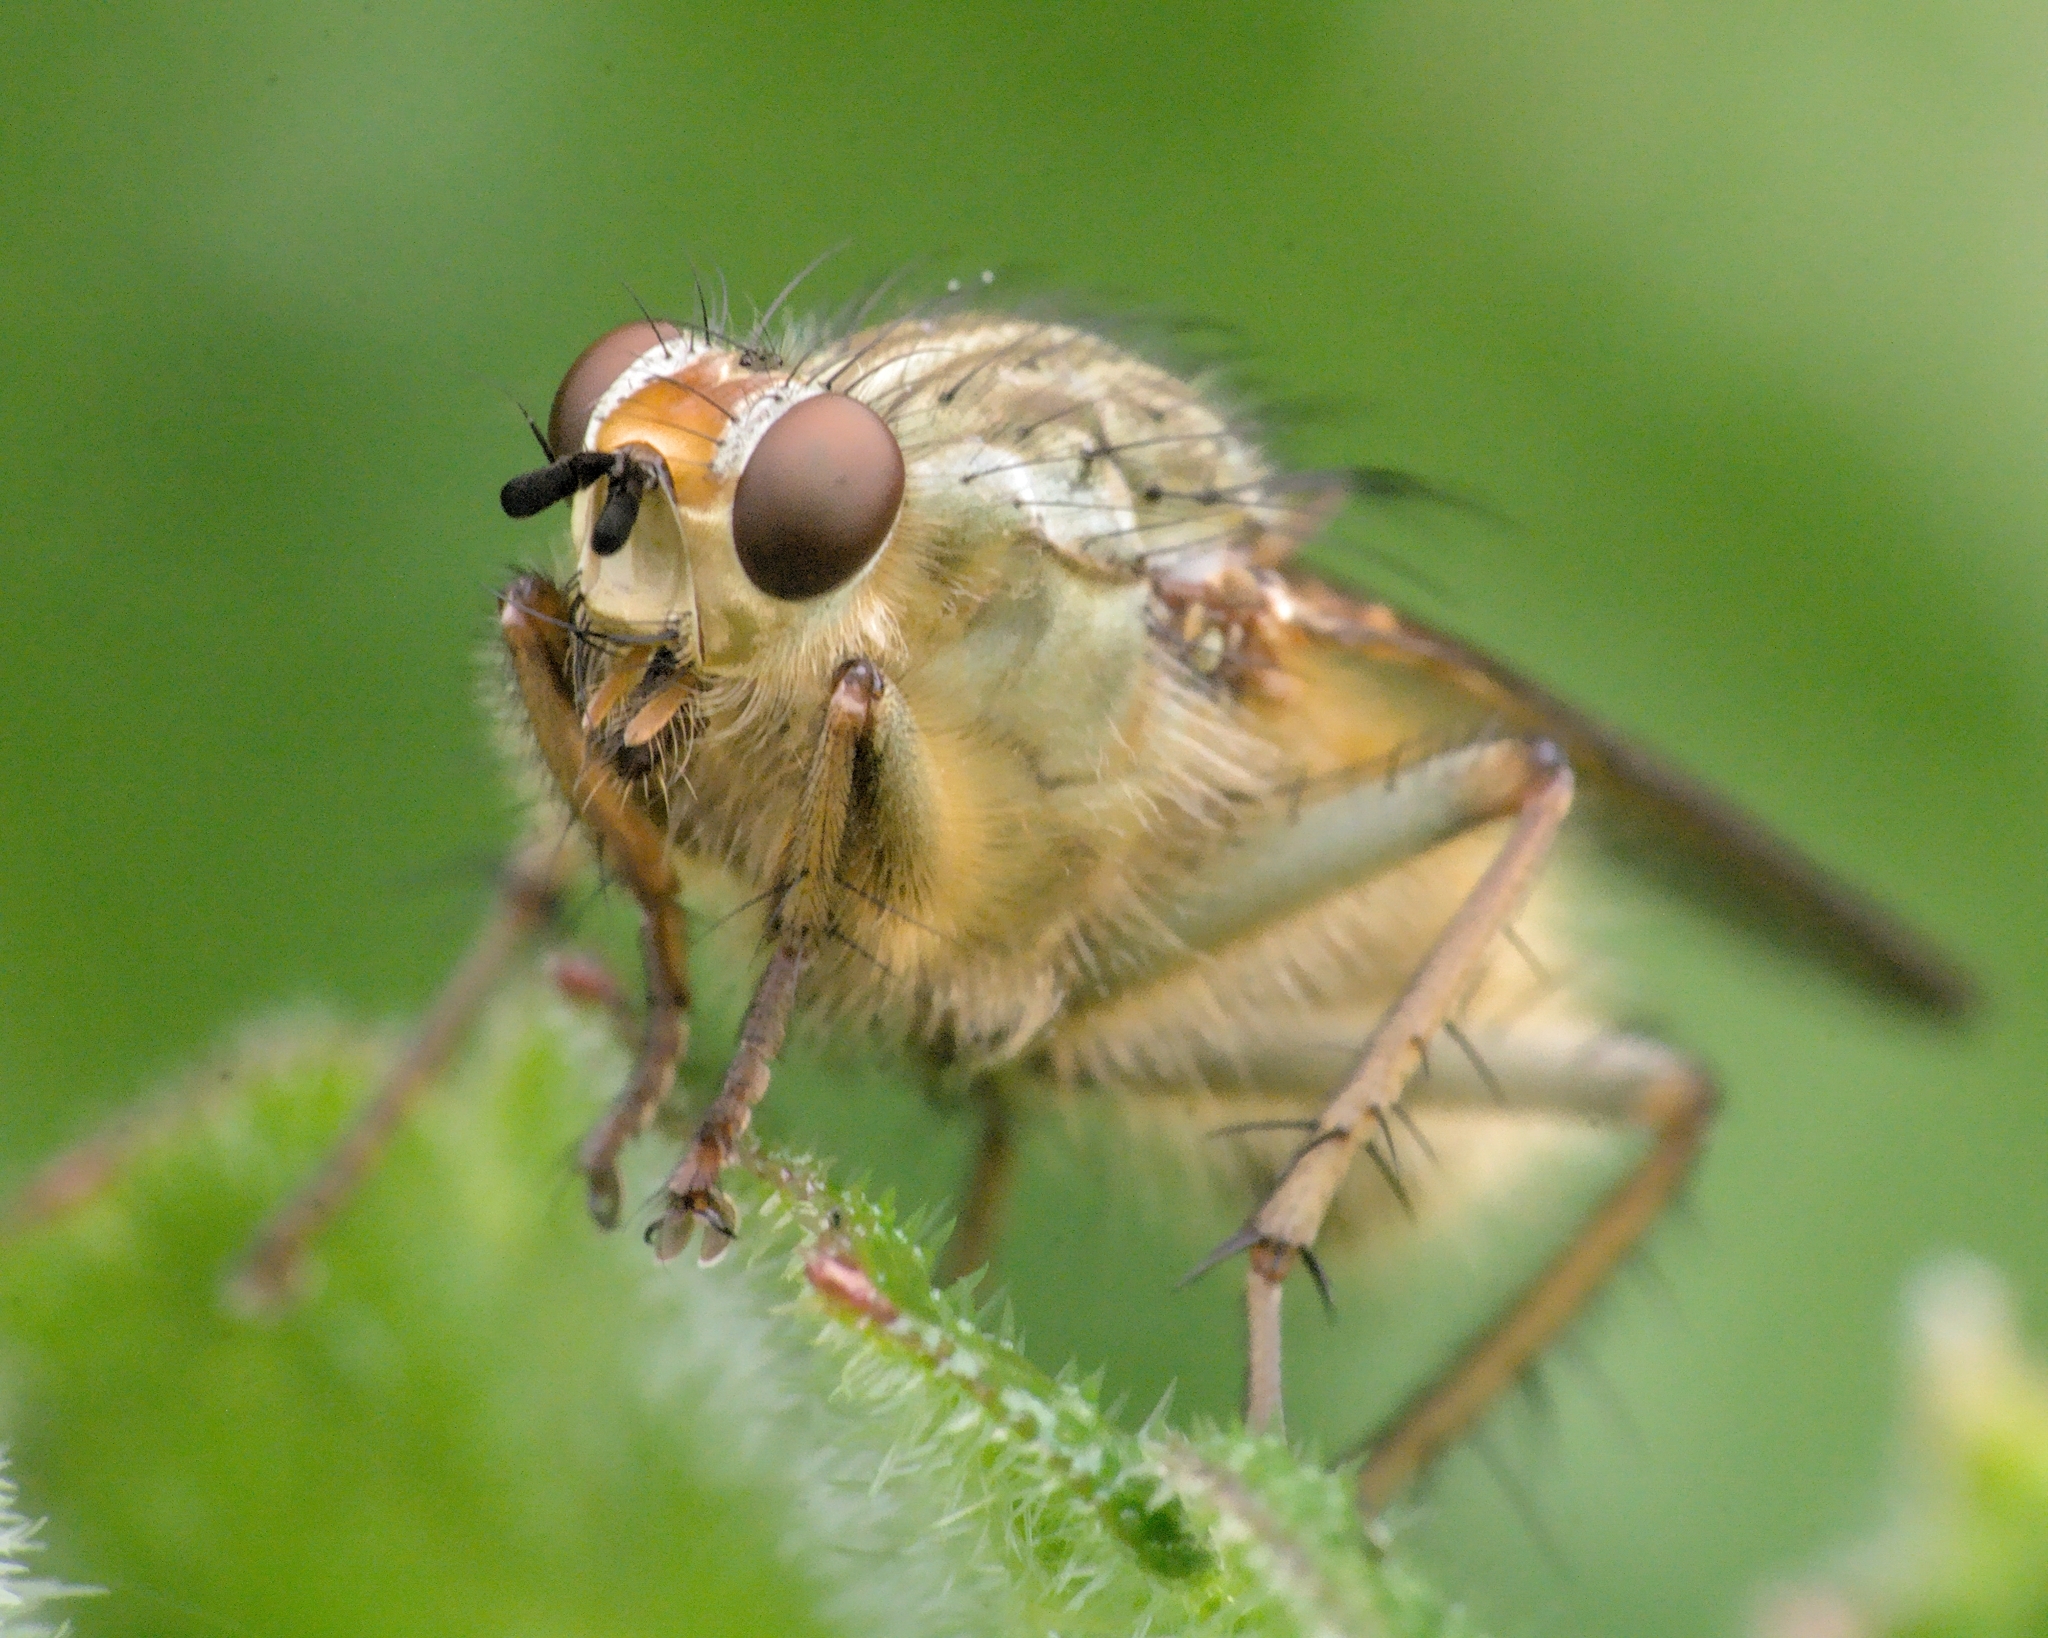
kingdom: Animalia
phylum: Arthropoda
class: Insecta
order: Diptera
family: Scathophagidae
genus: Scathophaga
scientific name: Scathophaga stercoraria
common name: Yellow dung fly
